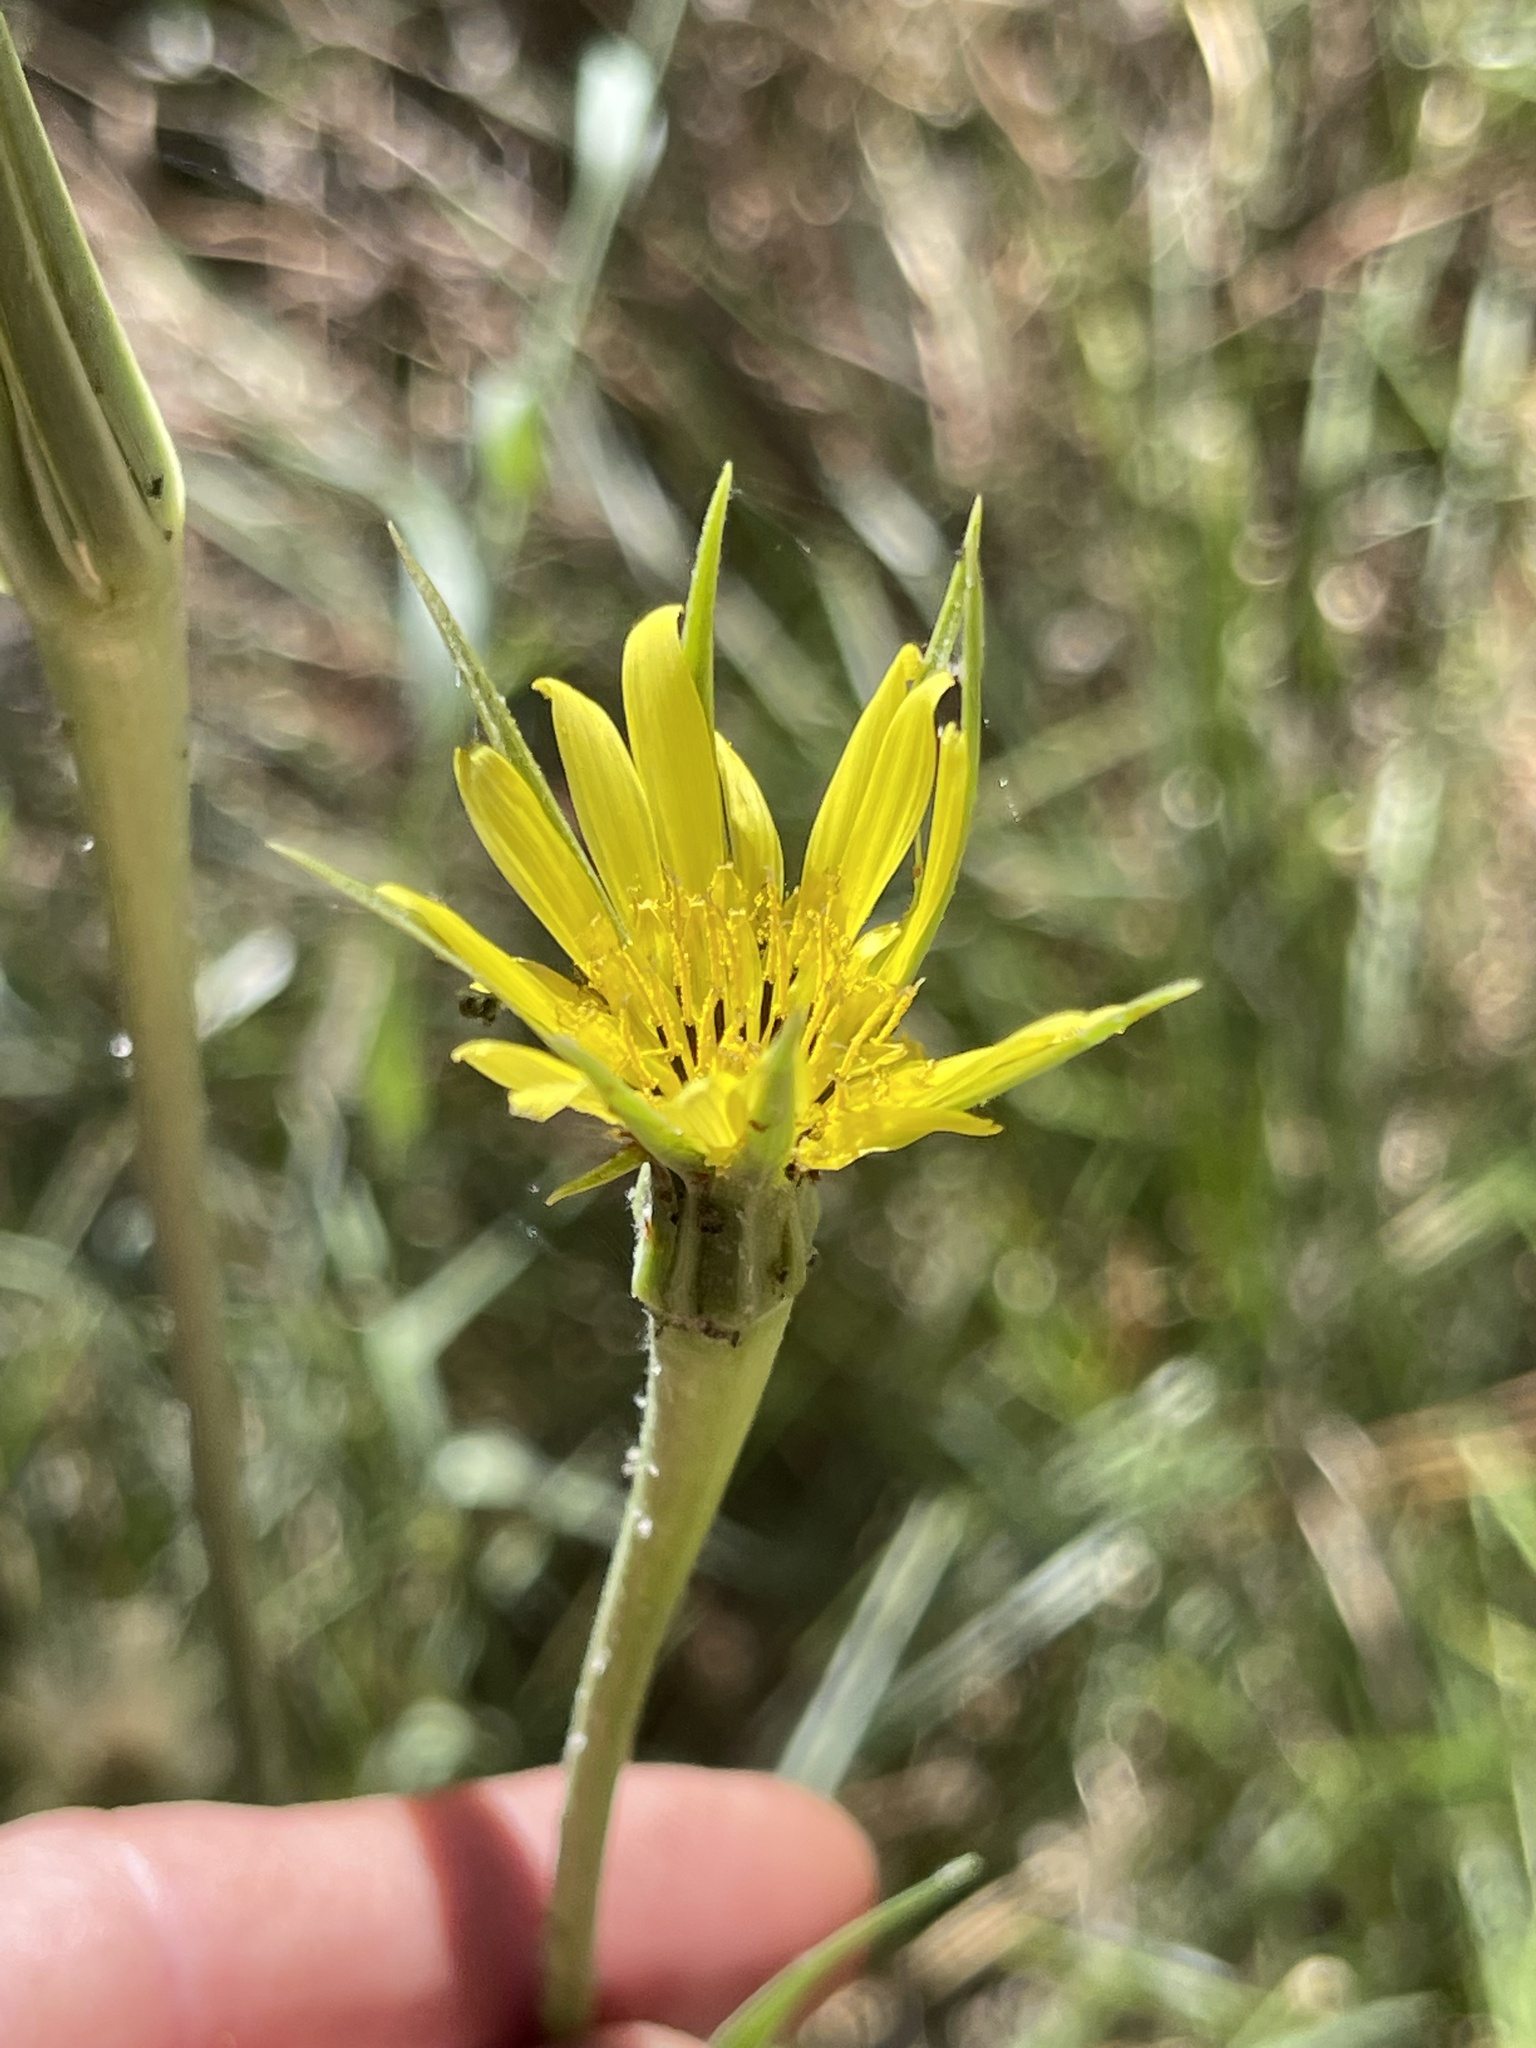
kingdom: Plantae
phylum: Tracheophyta
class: Magnoliopsida
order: Asterales
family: Asteraceae
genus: Tragopogon
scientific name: Tragopogon dubius
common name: Yellow salsify
